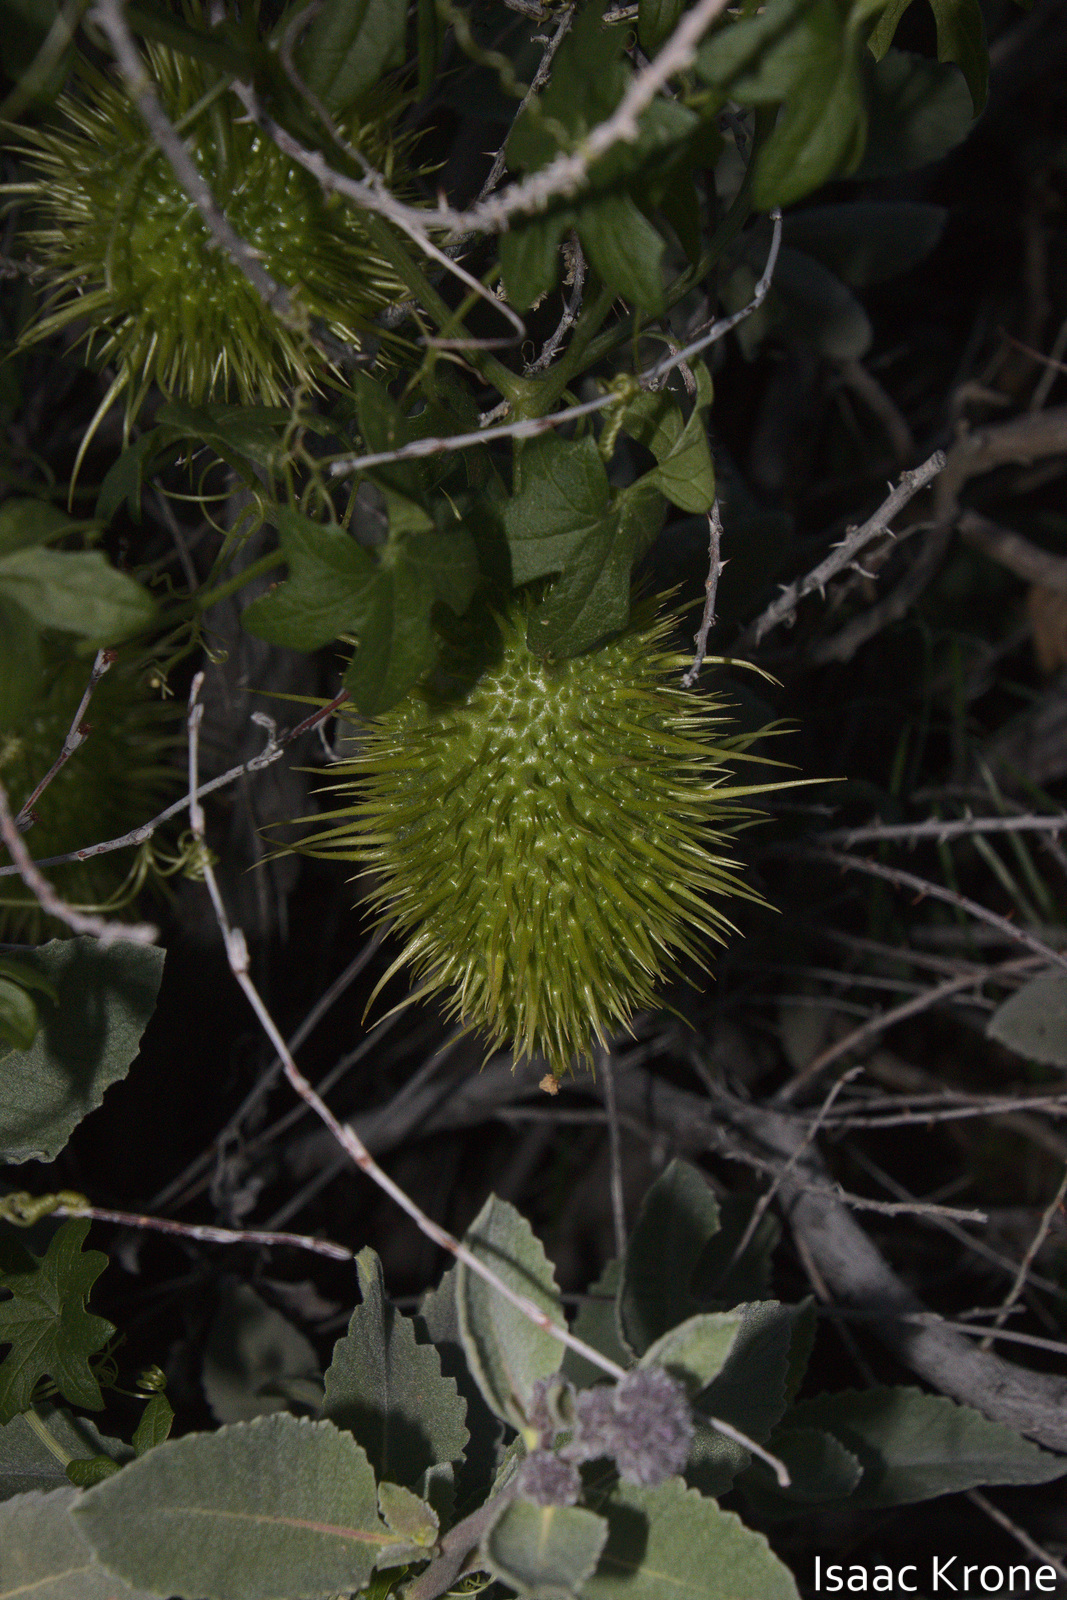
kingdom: Plantae
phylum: Tracheophyta
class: Magnoliopsida
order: Cucurbitales
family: Cucurbitaceae
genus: Marah
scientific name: Marah macrocarpa
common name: Cucamonga manroot
